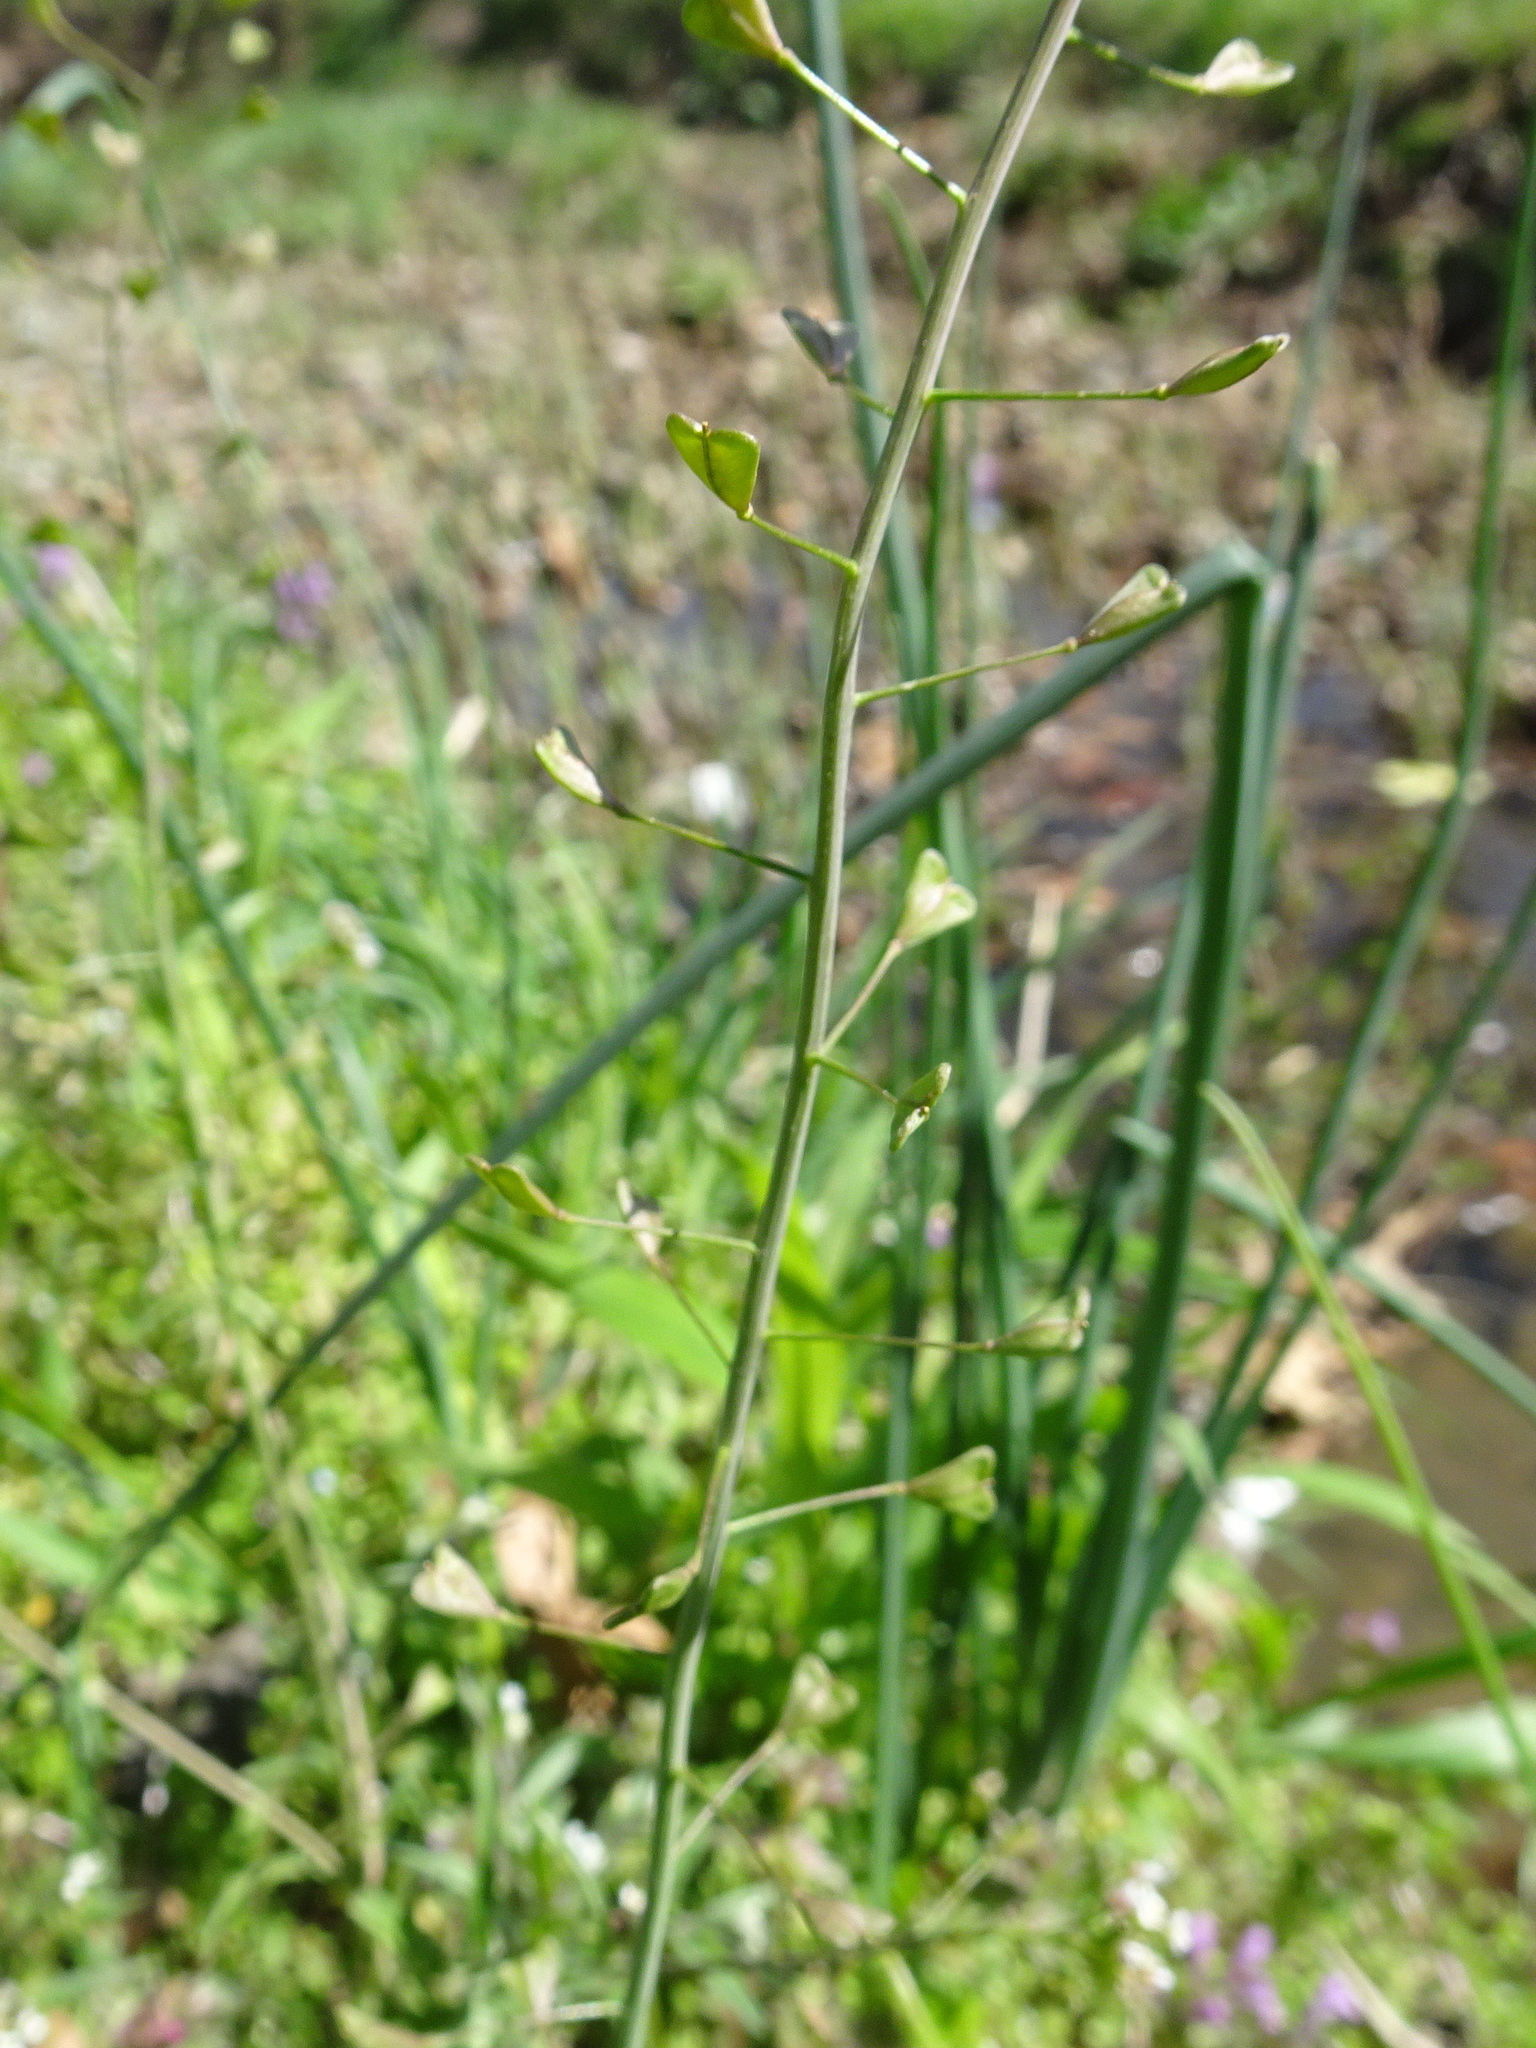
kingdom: Plantae
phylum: Tracheophyta
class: Magnoliopsida
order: Brassicales
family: Brassicaceae
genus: Capsella
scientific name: Capsella bursa-pastoris
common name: Shepherd's purse
